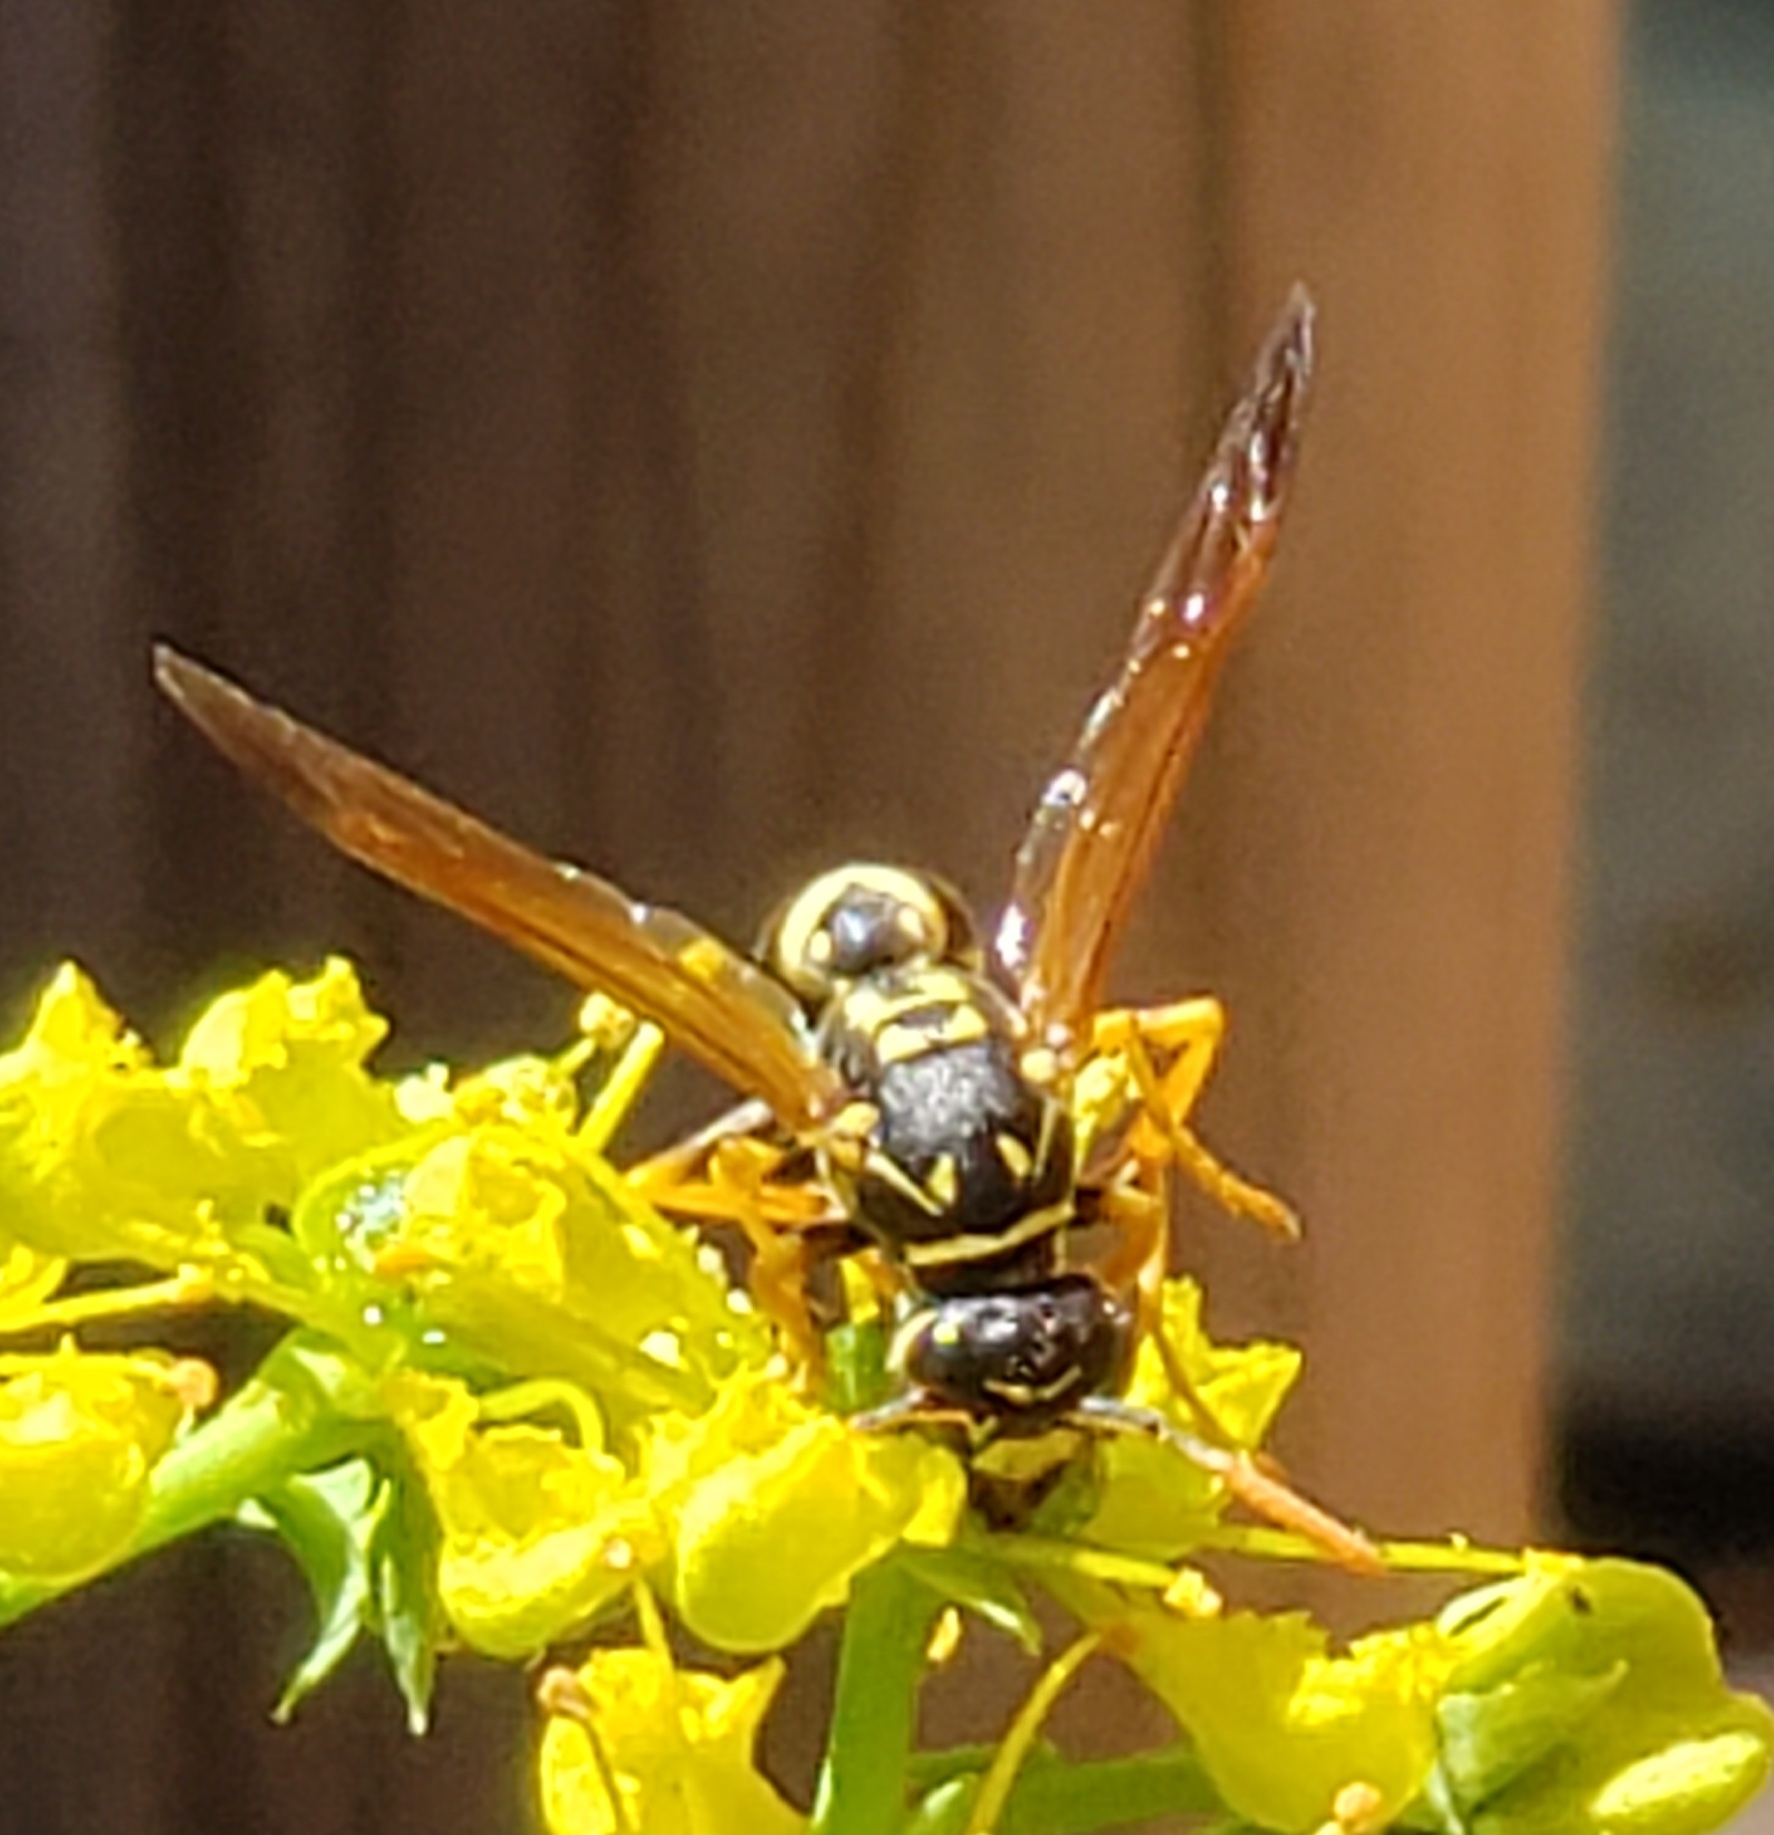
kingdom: Animalia
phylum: Arthropoda
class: Insecta
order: Hymenoptera
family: Eumenidae
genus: Polistes
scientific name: Polistes dominula
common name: Paper wasp
